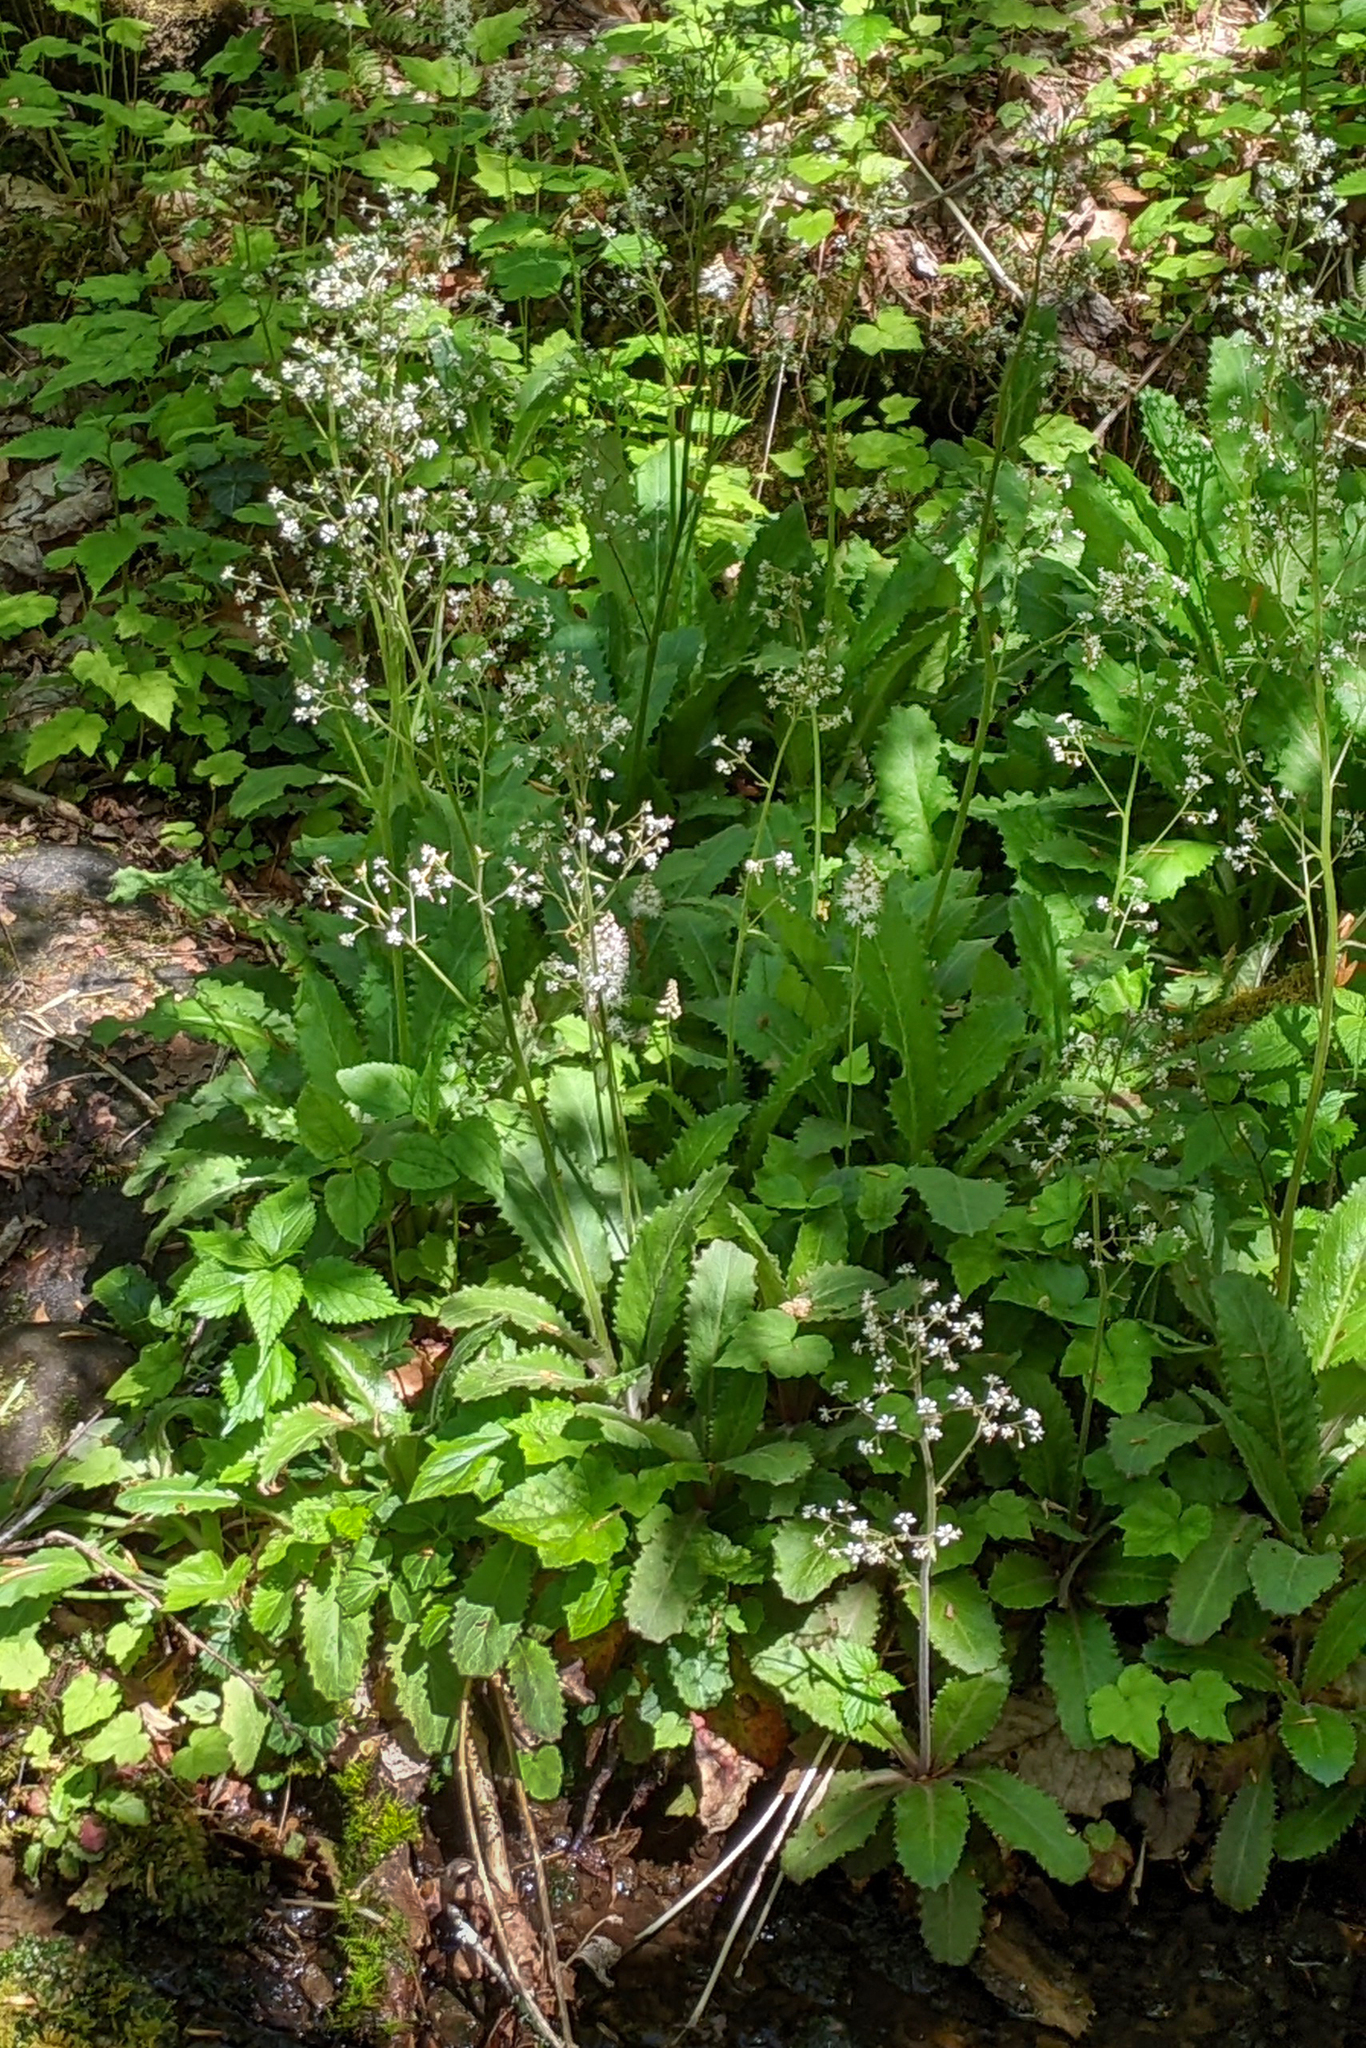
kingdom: Plantae
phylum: Tracheophyta
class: Magnoliopsida
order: Saxifragales
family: Saxifragaceae
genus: Micranthes
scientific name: Micranthes micranthidifolia
